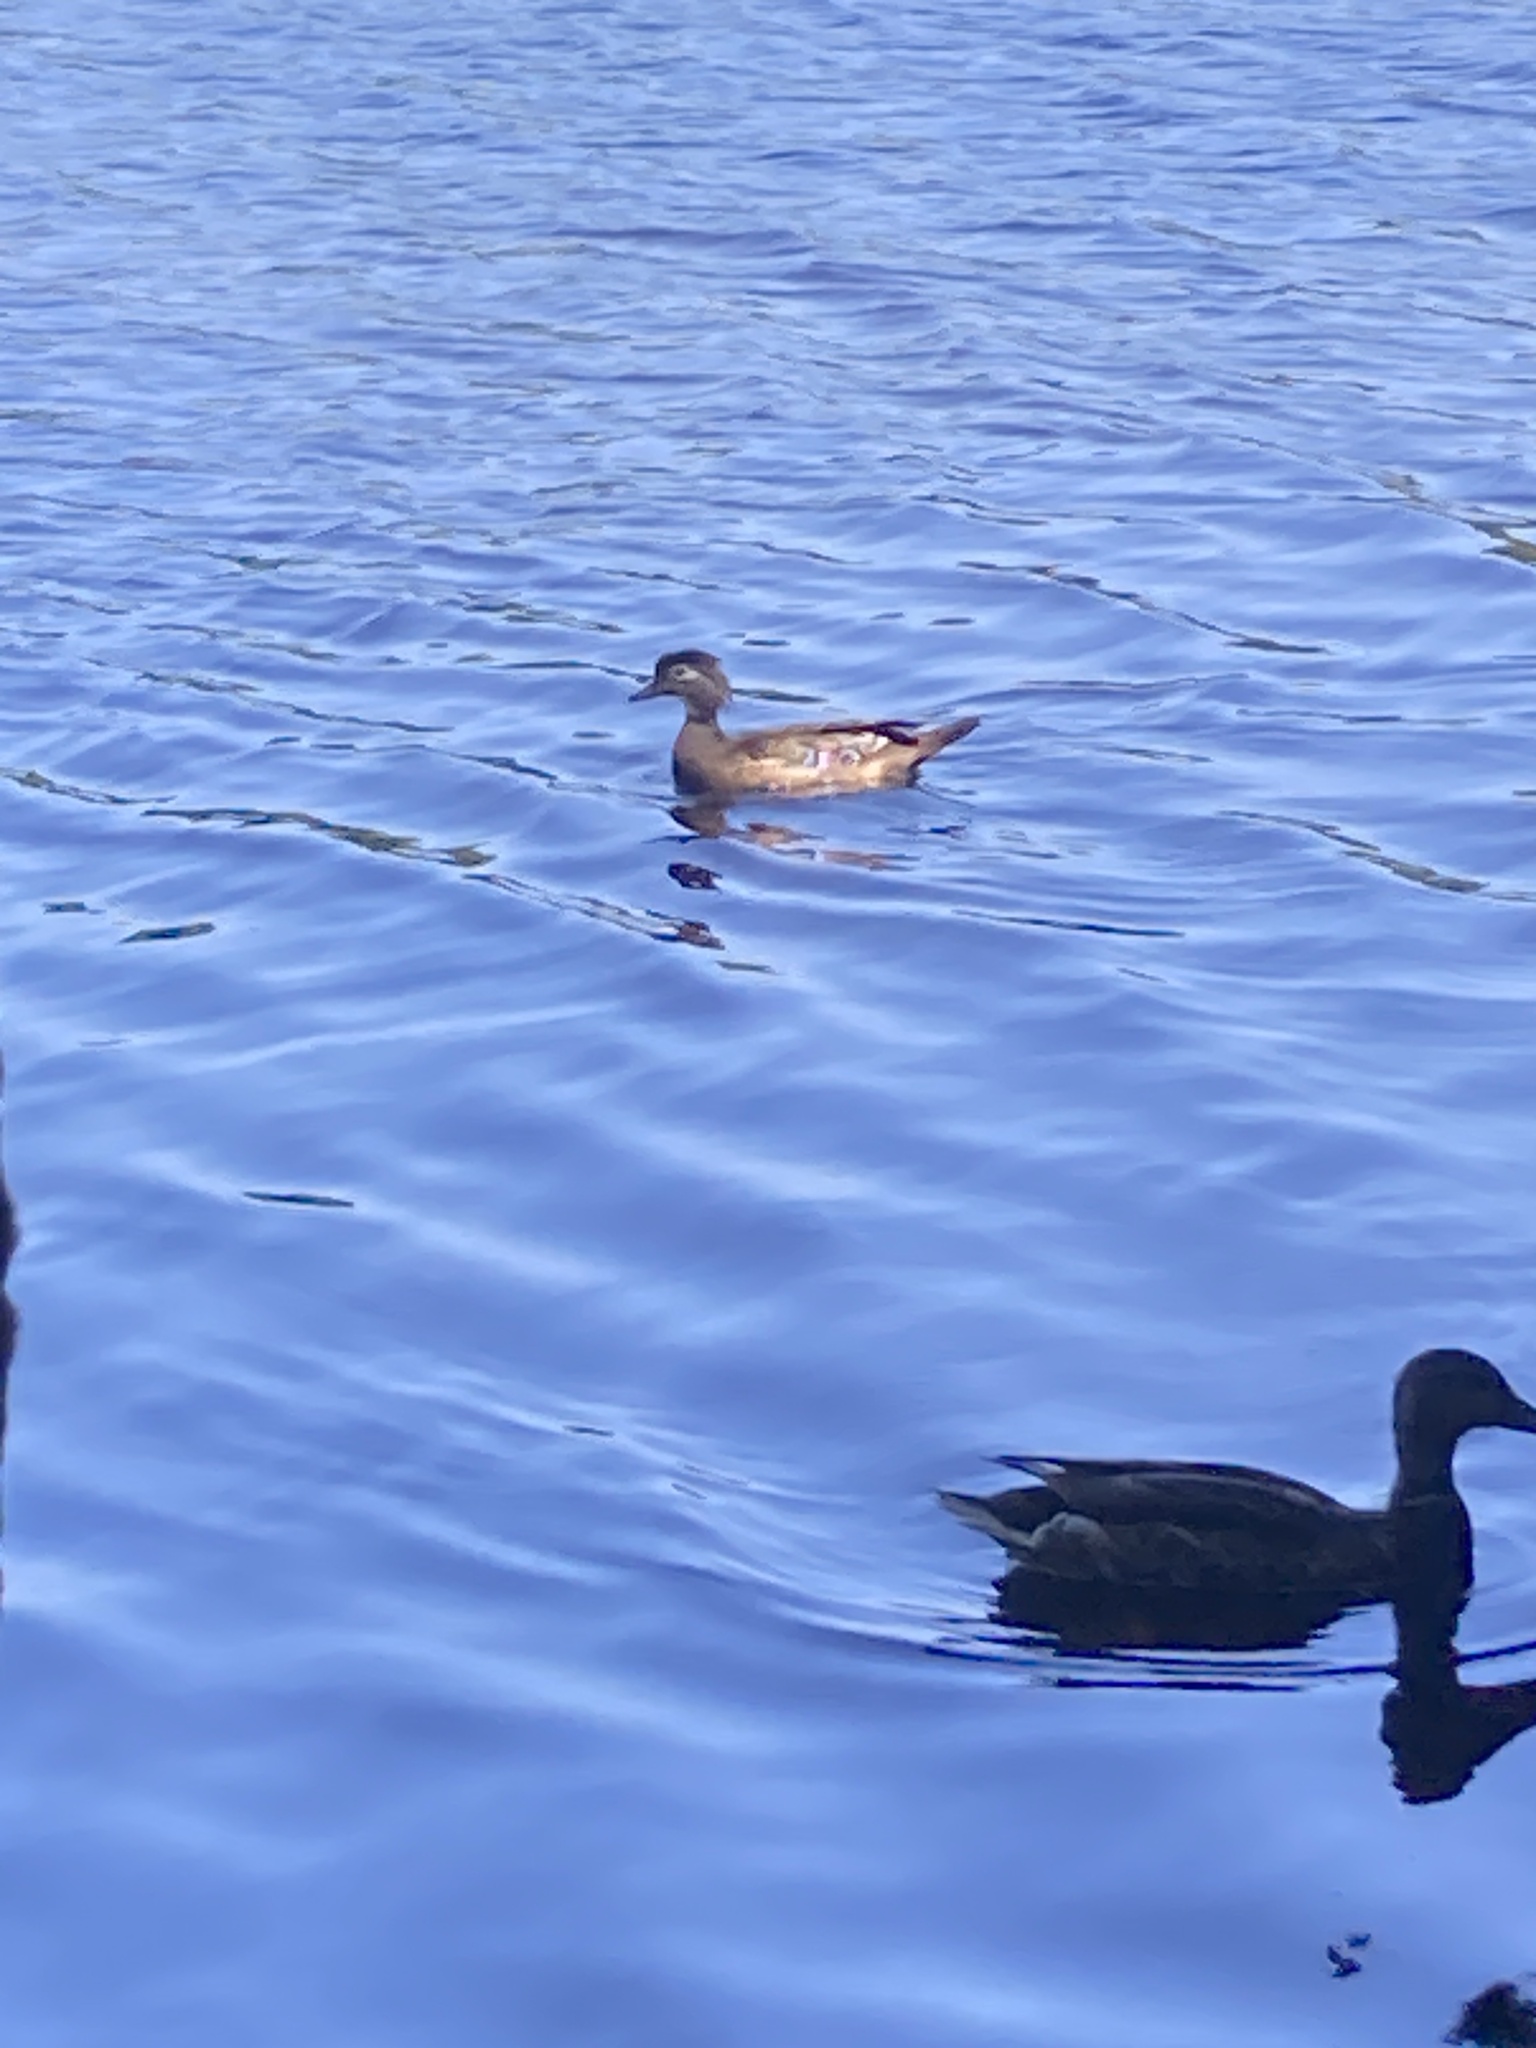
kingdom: Animalia
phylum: Chordata
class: Aves
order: Anseriformes
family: Anatidae
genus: Aix
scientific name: Aix sponsa
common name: Wood duck
